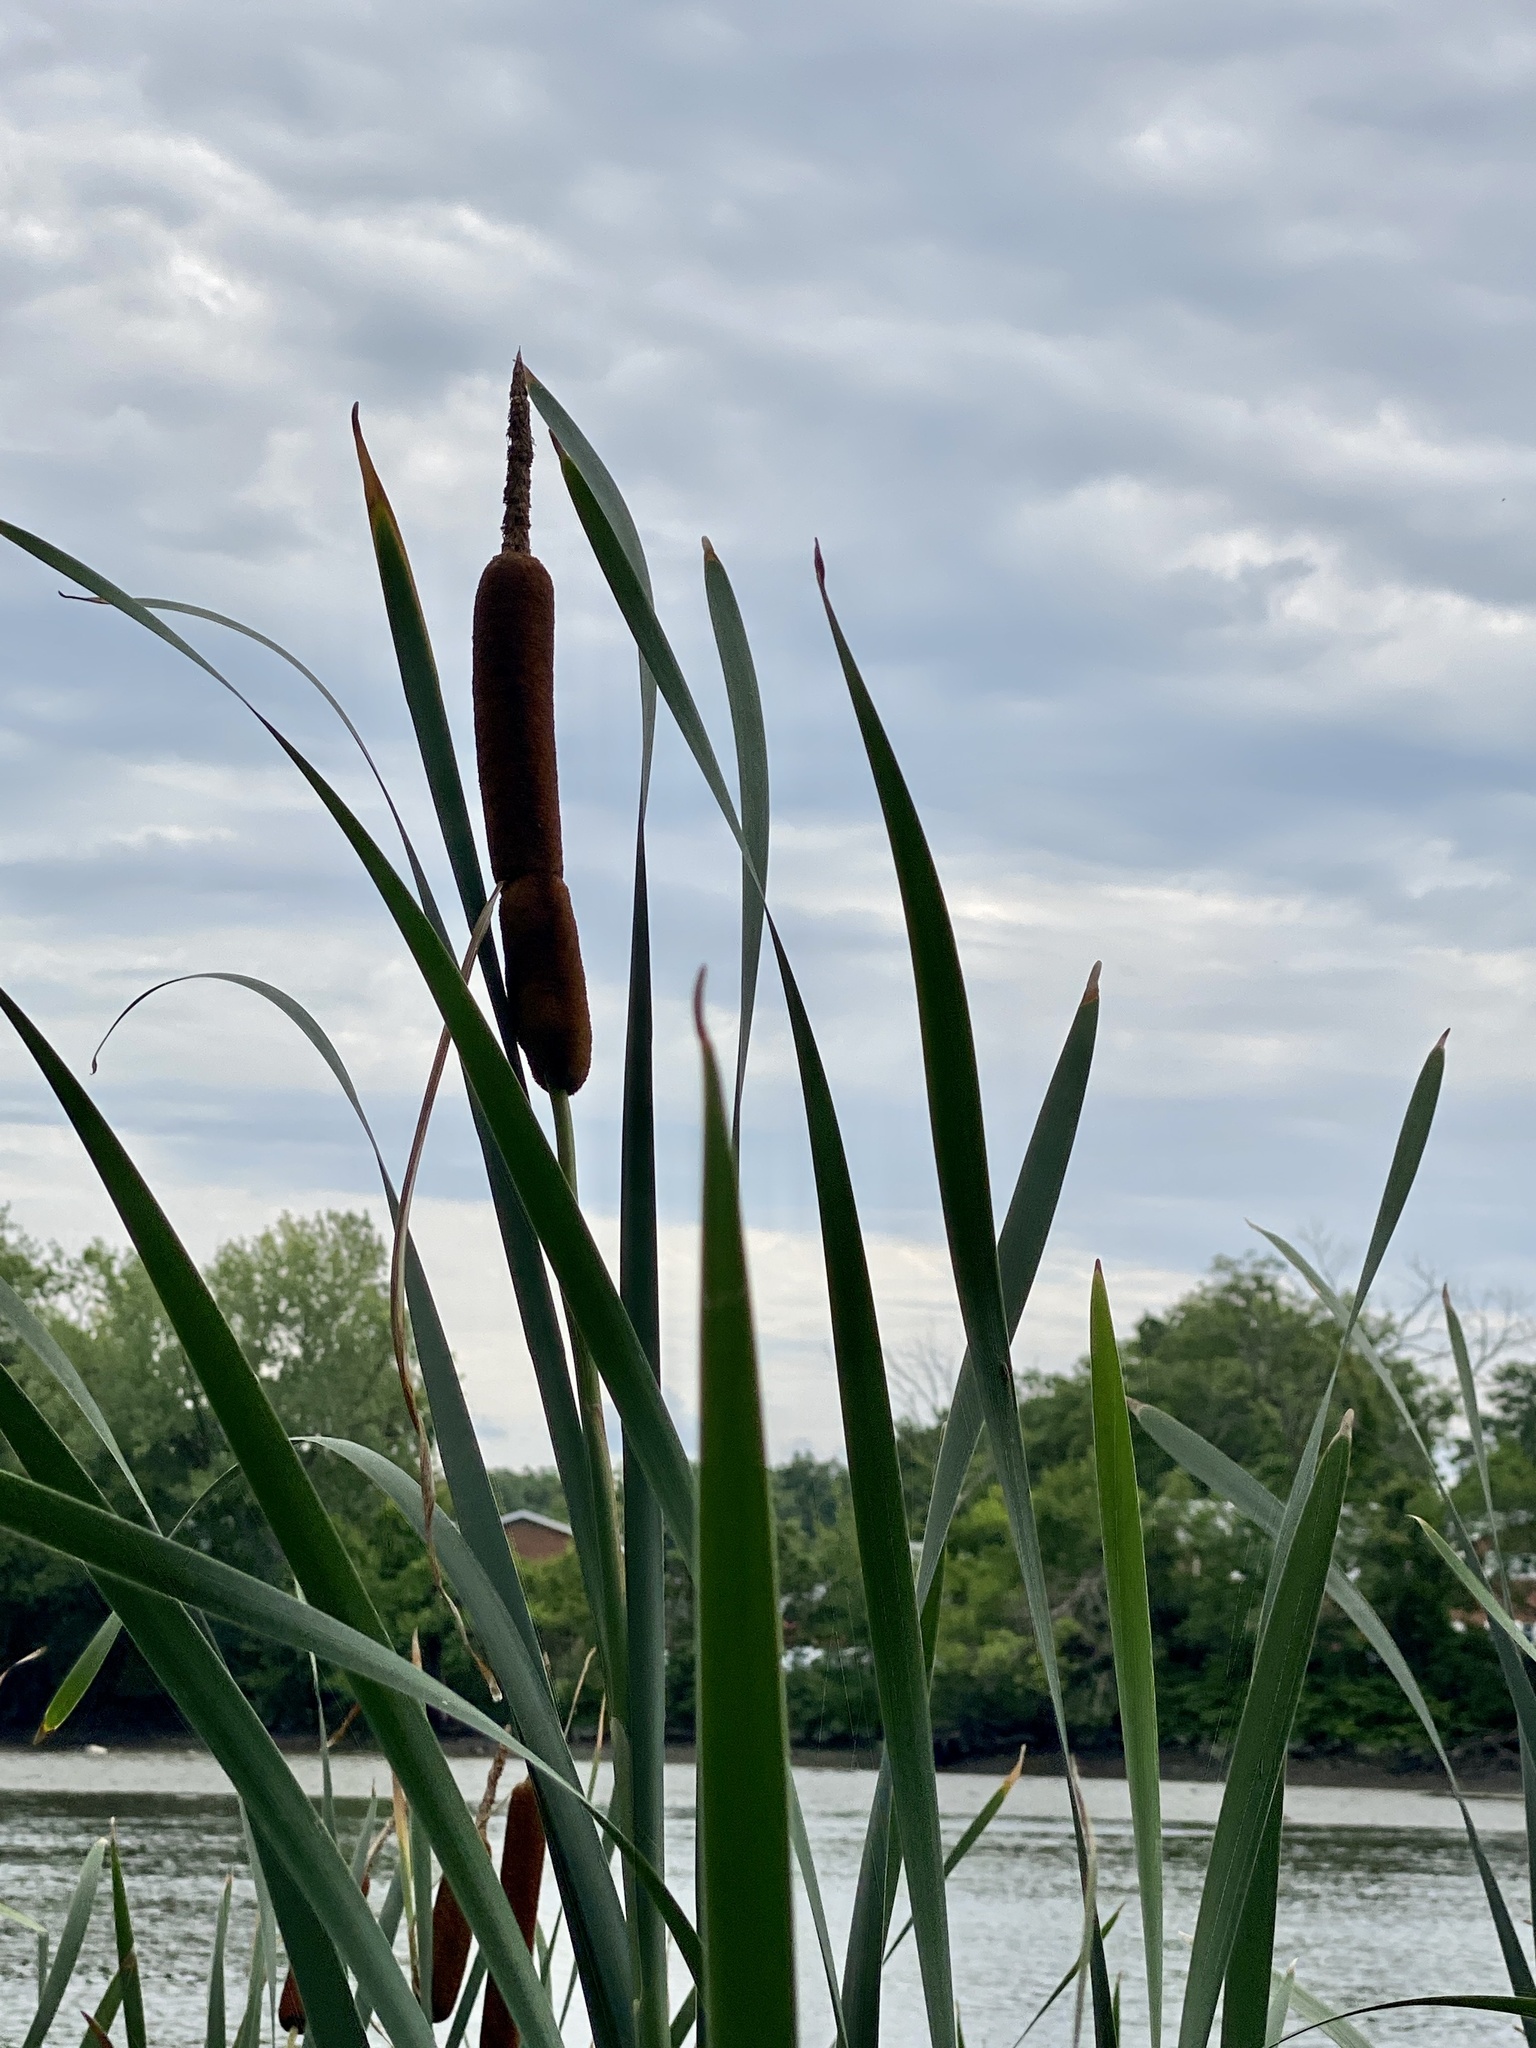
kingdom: Plantae
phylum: Tracheophyta
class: Liliopsida
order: Poales
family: Typhaceae
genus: Typha
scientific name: Typha latifolia
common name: Broadleaf cattail
